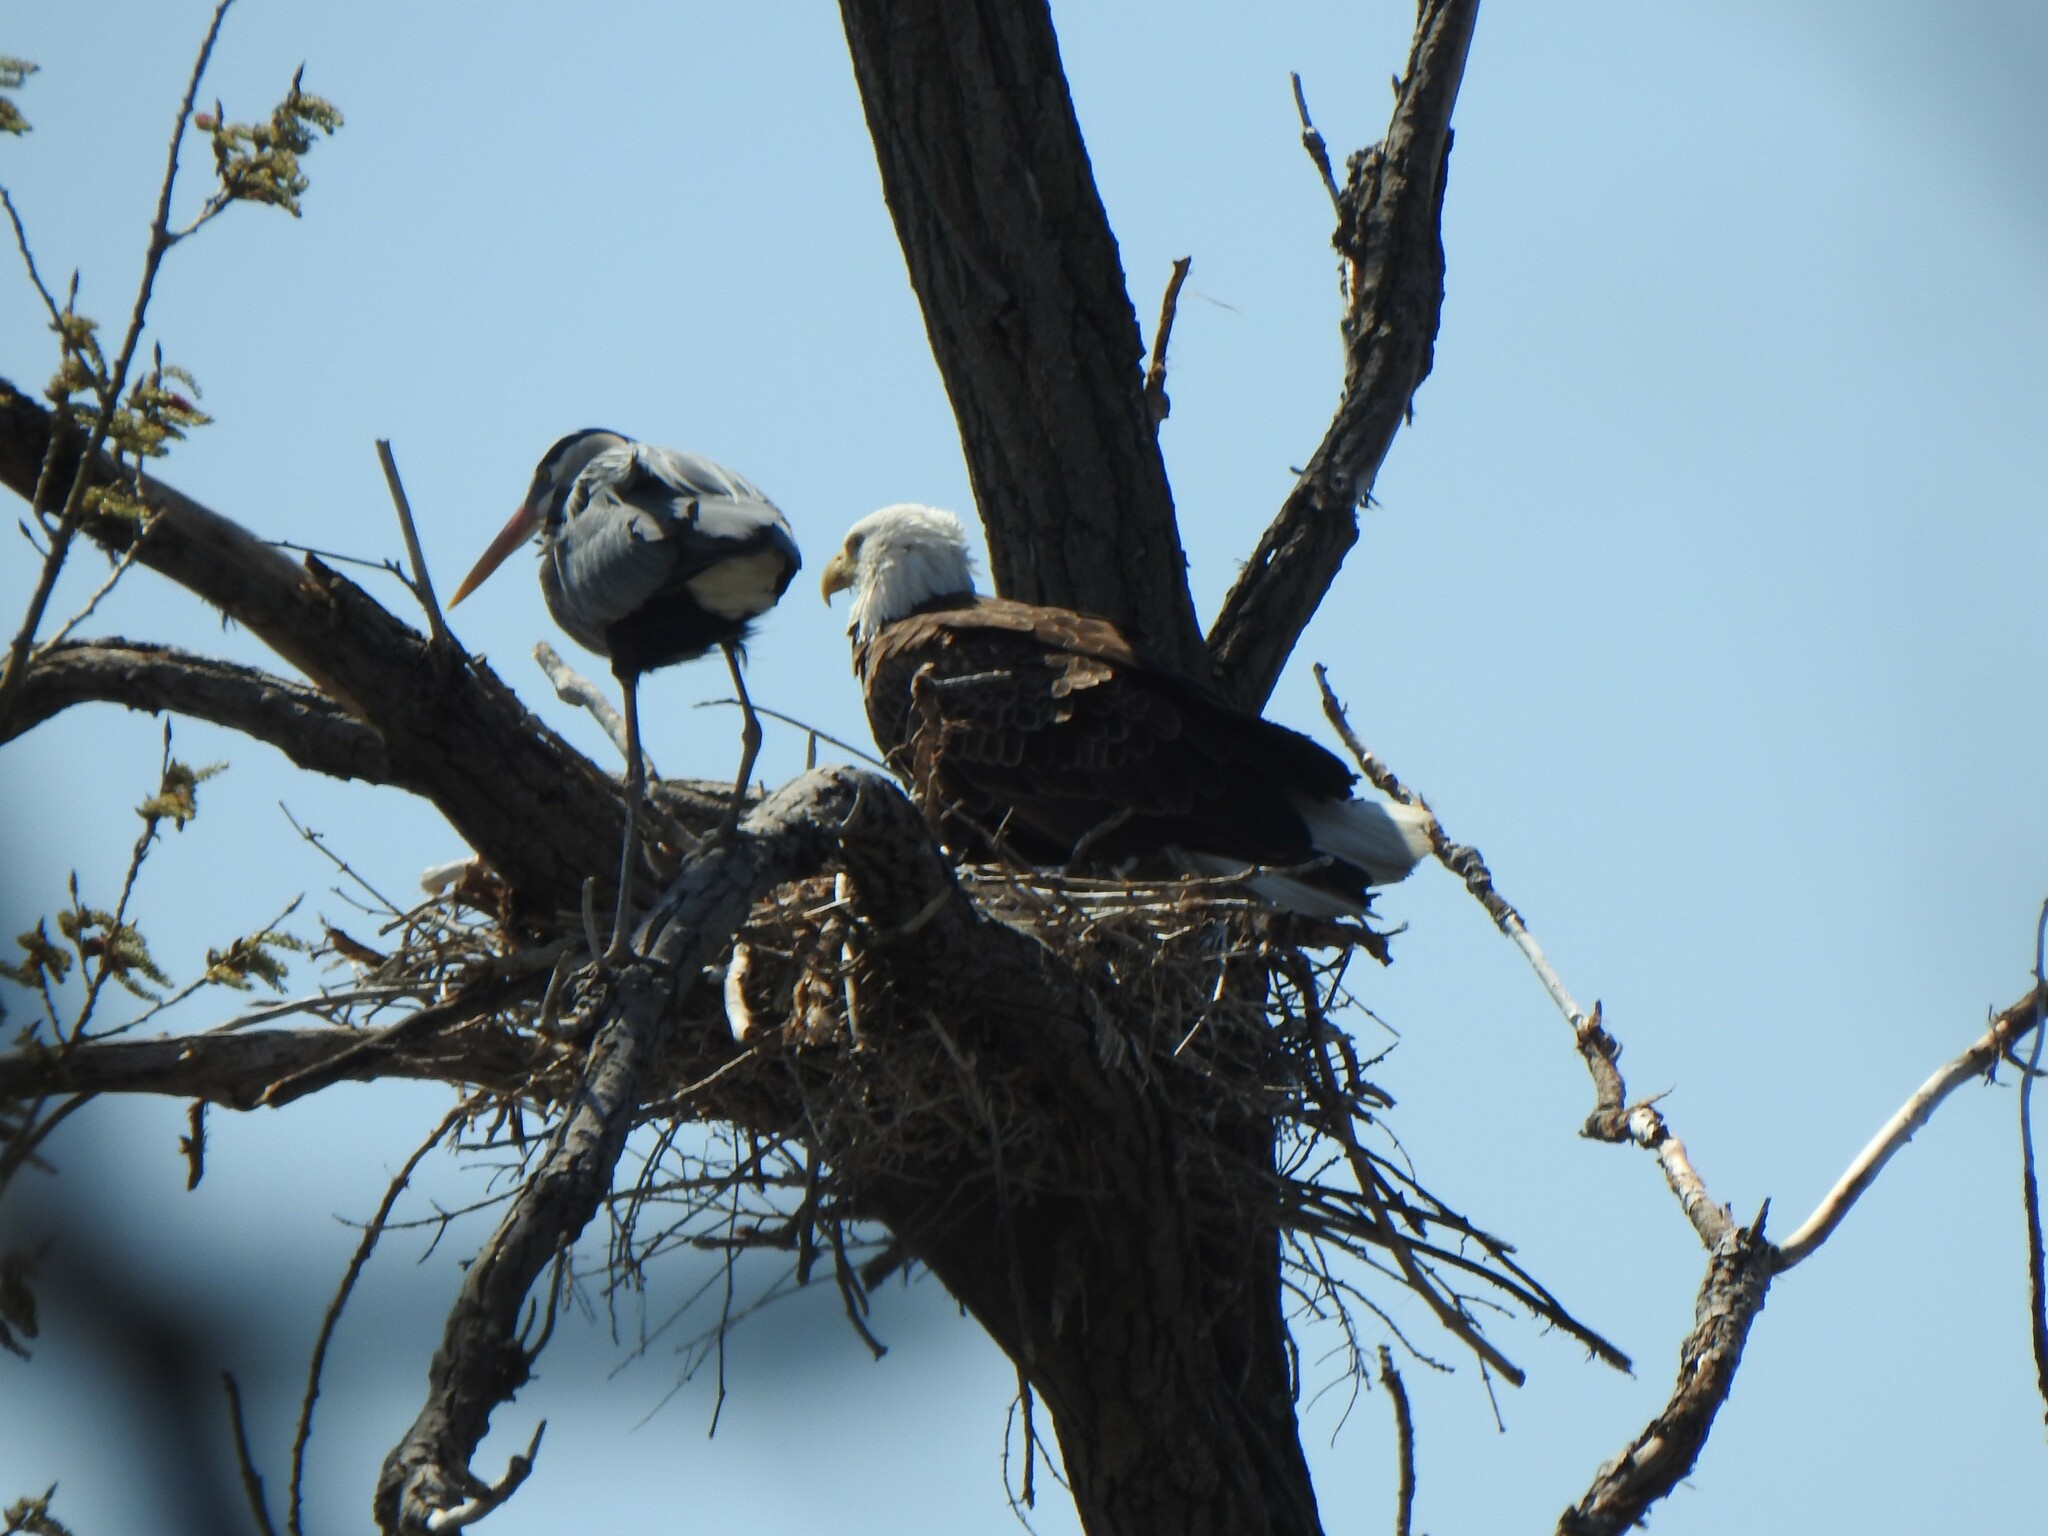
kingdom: Animalia
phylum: Chordata
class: Aves
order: Accipitriformes
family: Accipitridae
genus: Haliaeetus
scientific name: Haliaeetus leucocephalus
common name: Bald eagle
